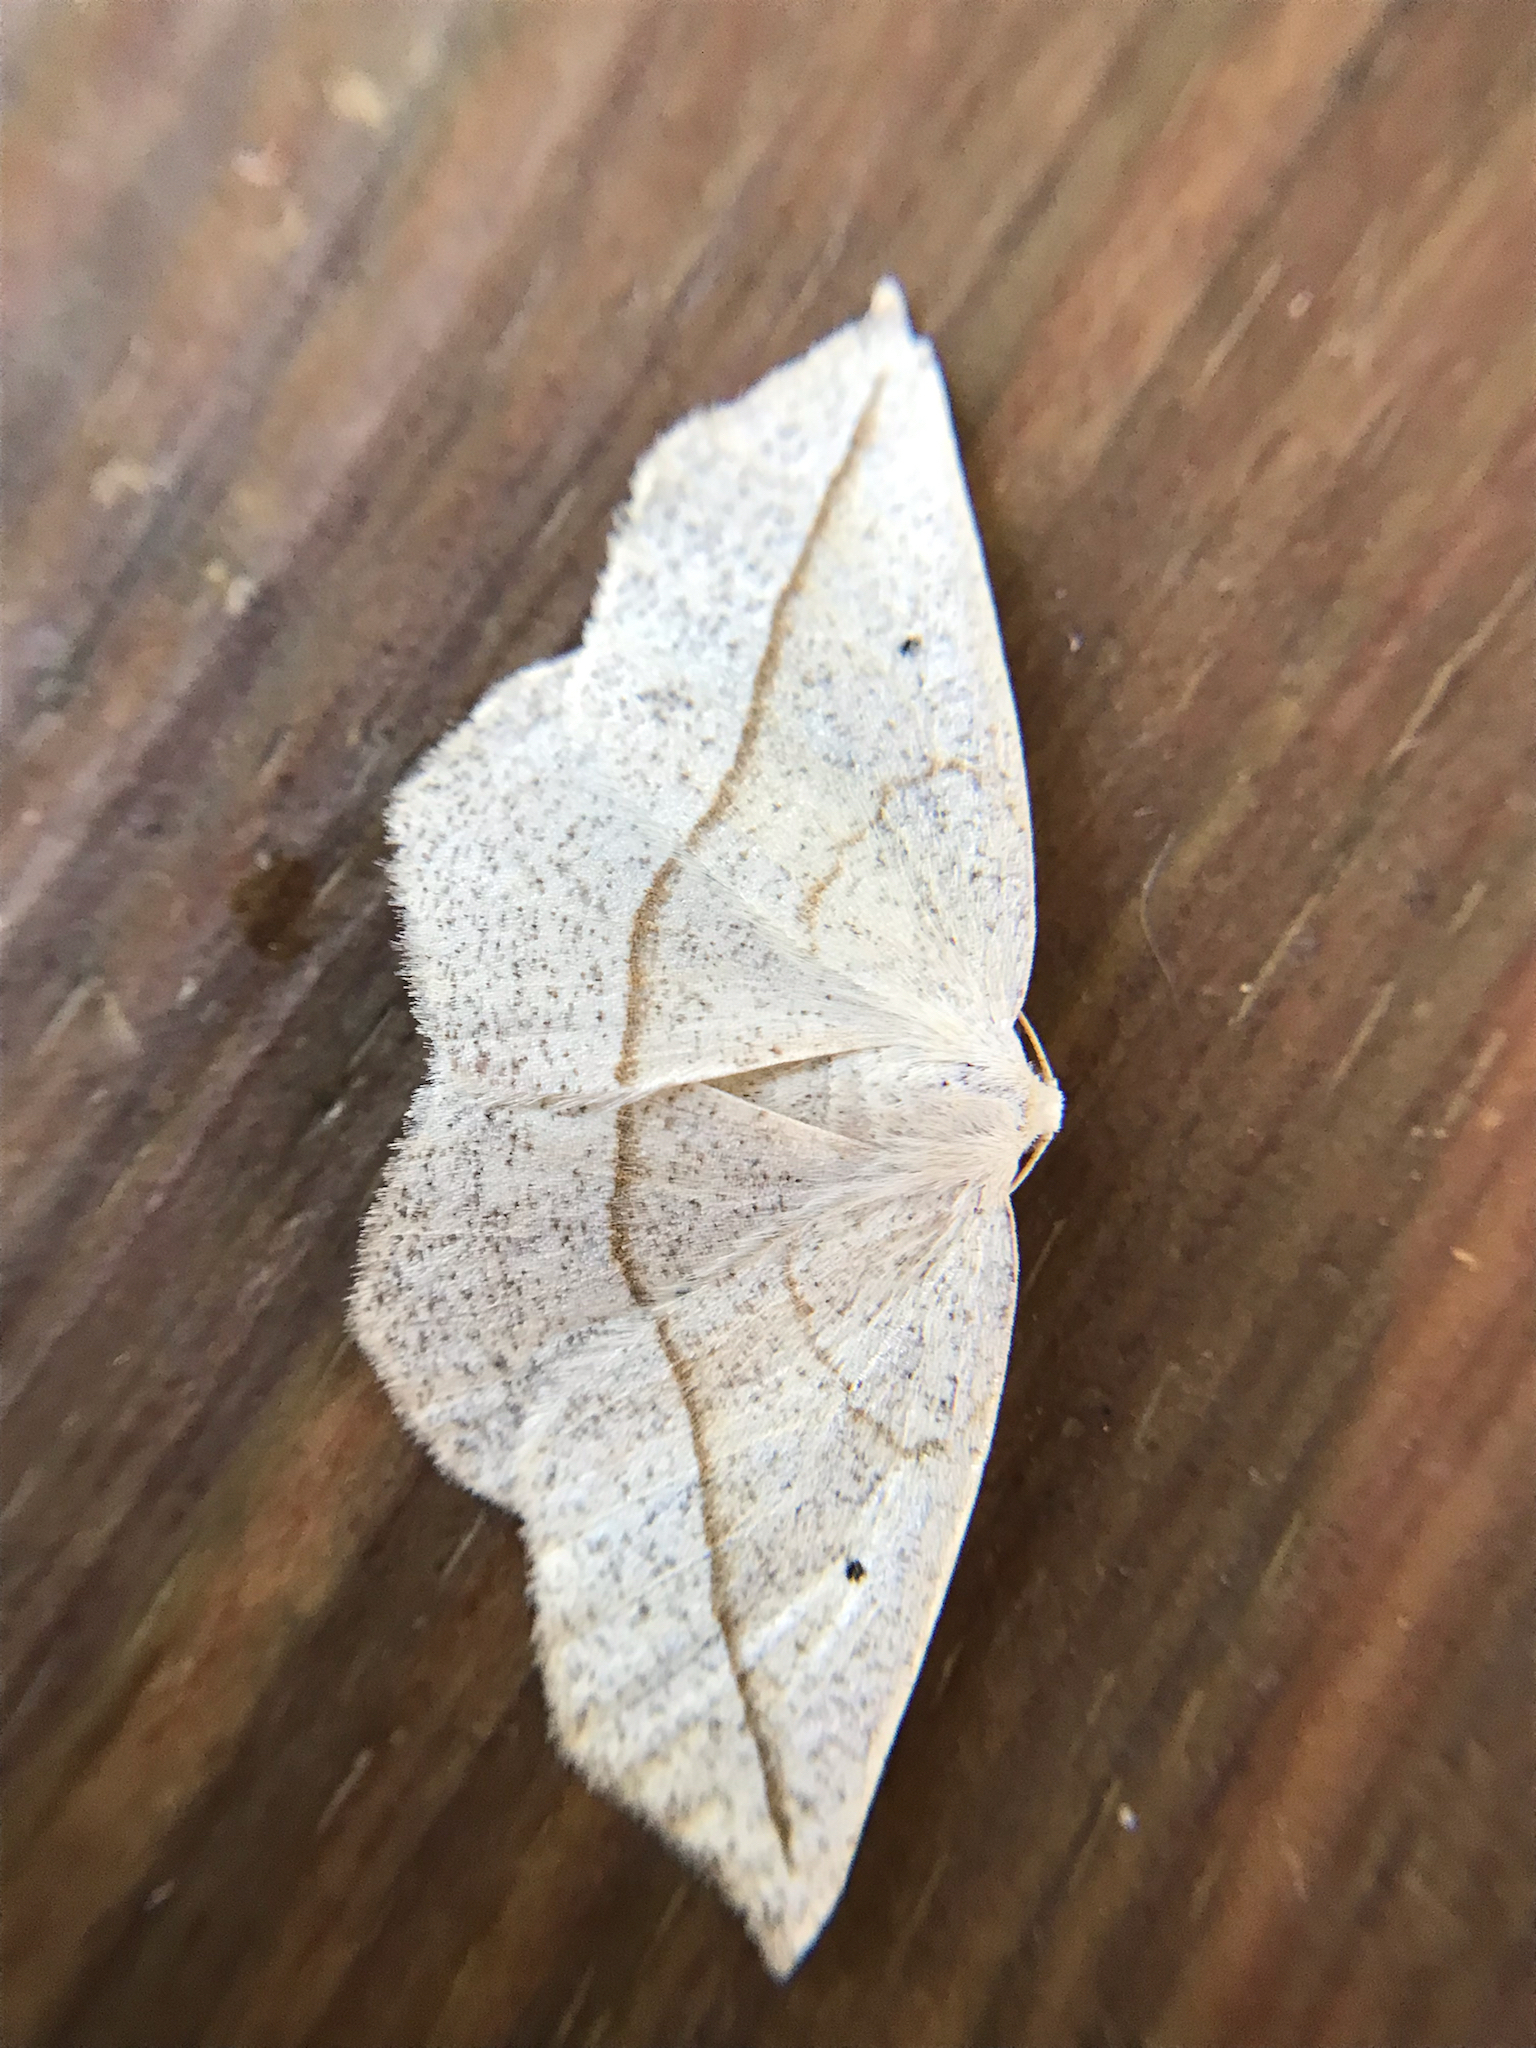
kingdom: Animalia
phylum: Arthropoda
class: Insecta
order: Lepidoptera
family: Geometridae
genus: Eusarca
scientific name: Eusarca confusaria
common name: Confused eusarca
